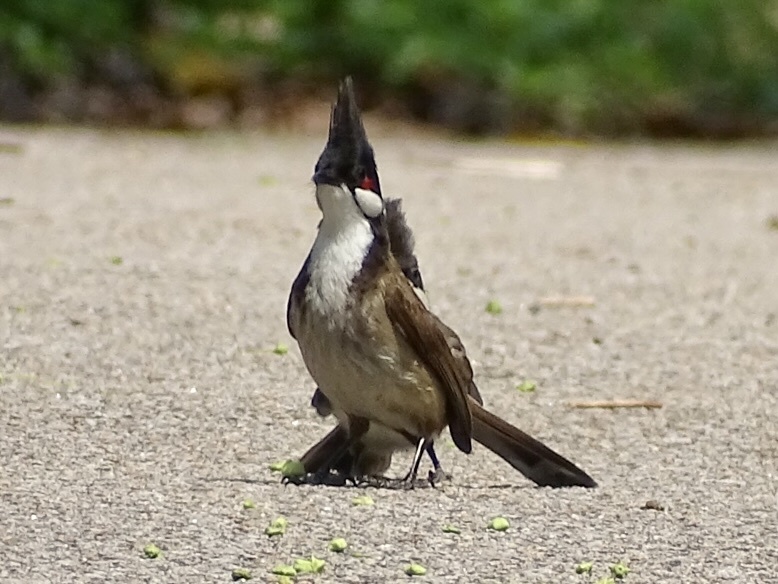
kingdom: Animalia
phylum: Chordata
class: Aves
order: Passeriformes
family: Pycnonotidae
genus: Pycnonotus
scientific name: Pycnonotus jocosus
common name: Red-whiskered bulbul
